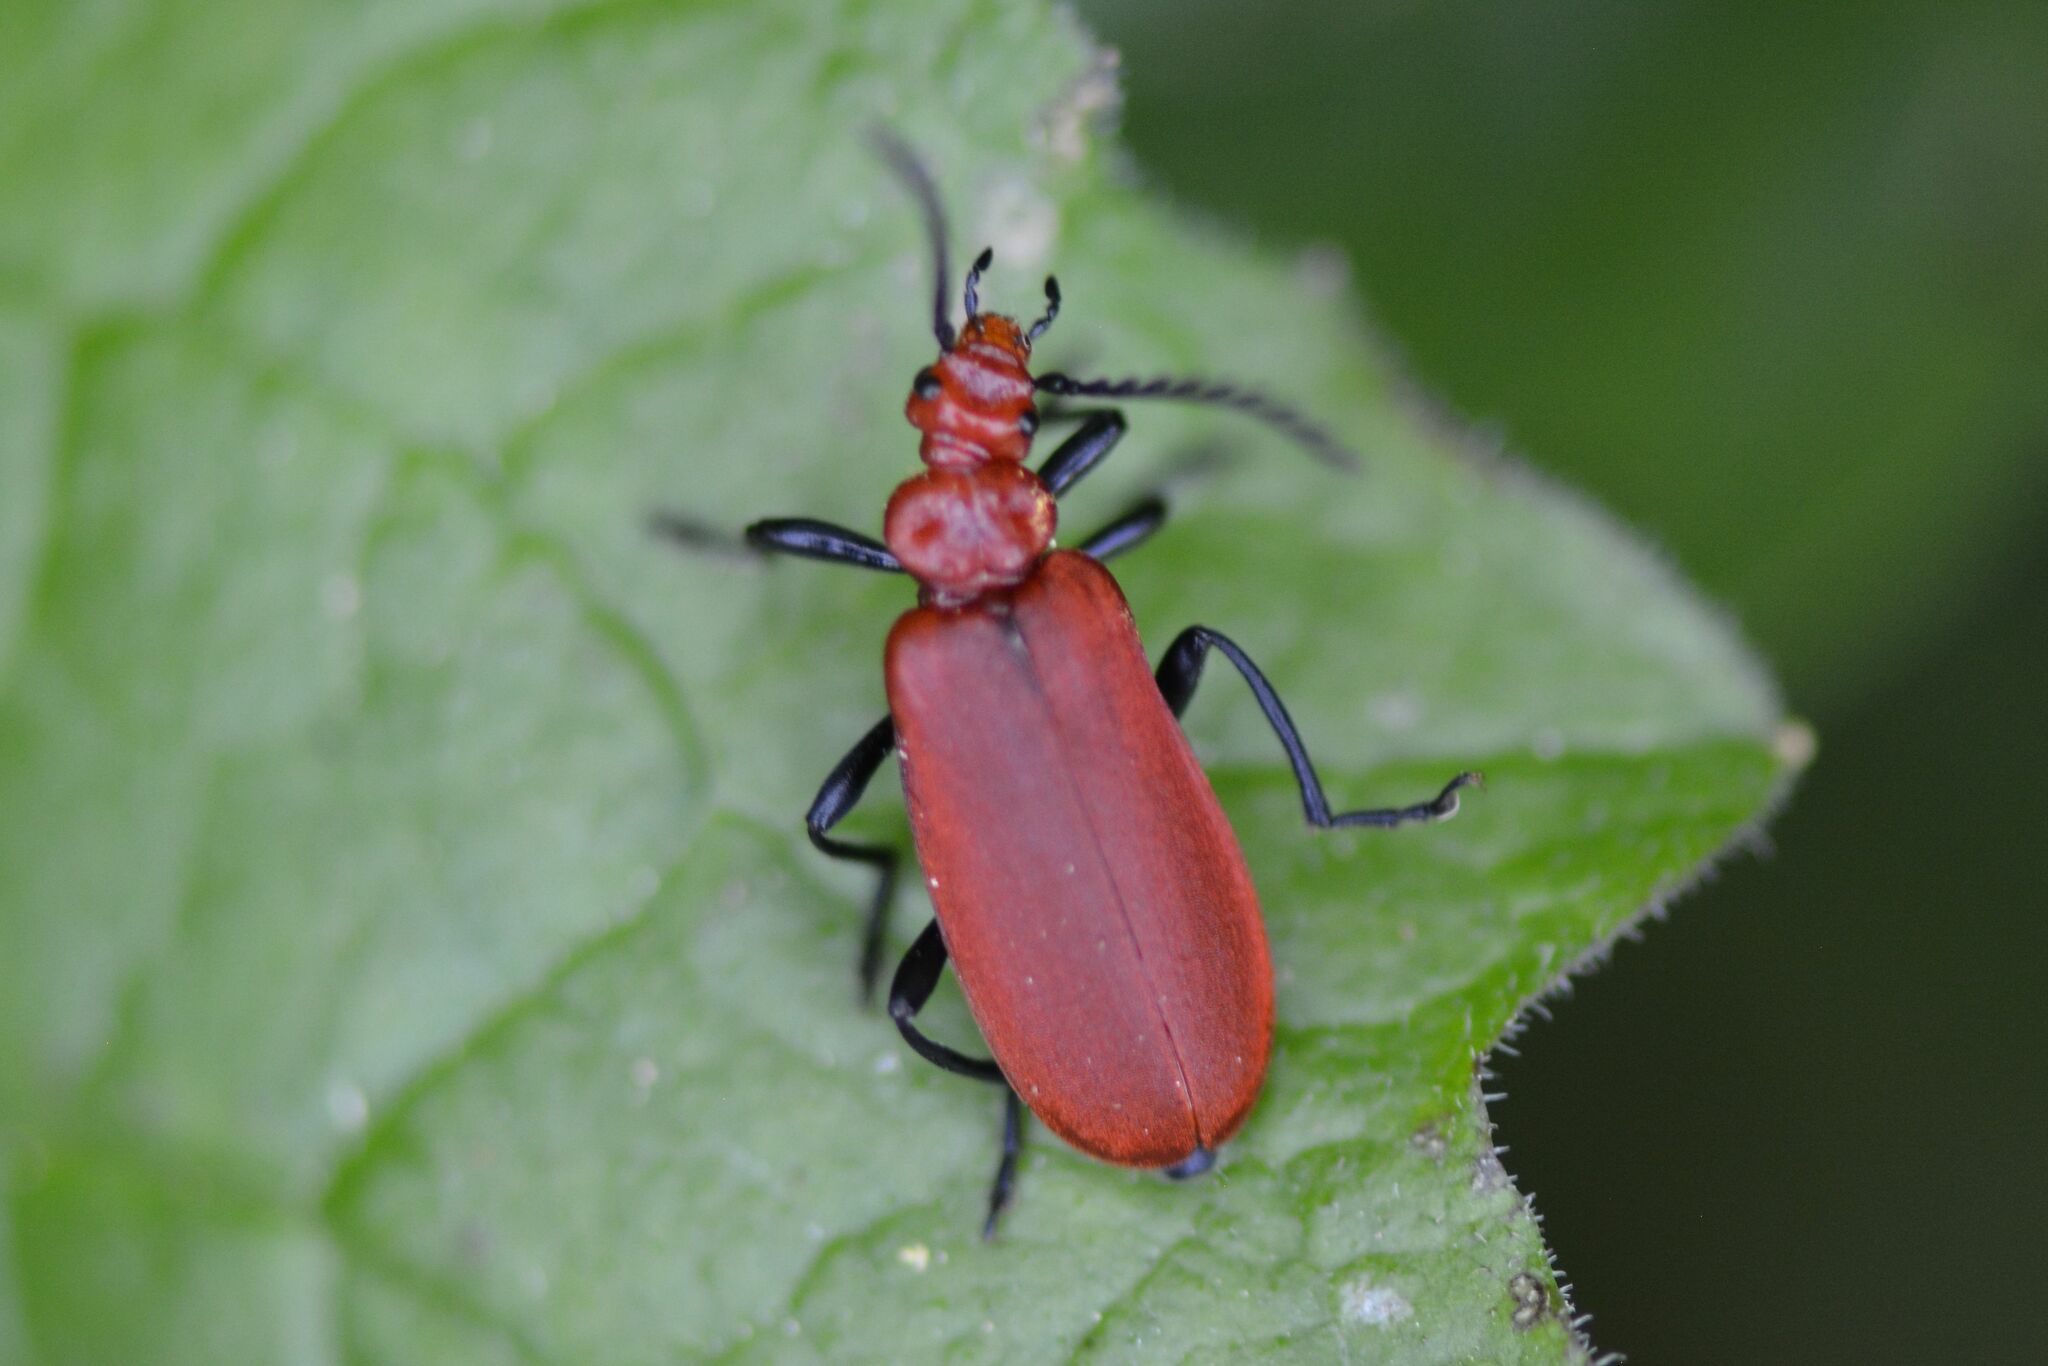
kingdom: Animalia
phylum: Arthropoda
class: Insecta
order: Coleoptera
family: Pyrochroidae
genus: Pyrochroa
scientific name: Pyrochroa serraticornis
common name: Red-headed cardinal beetle
